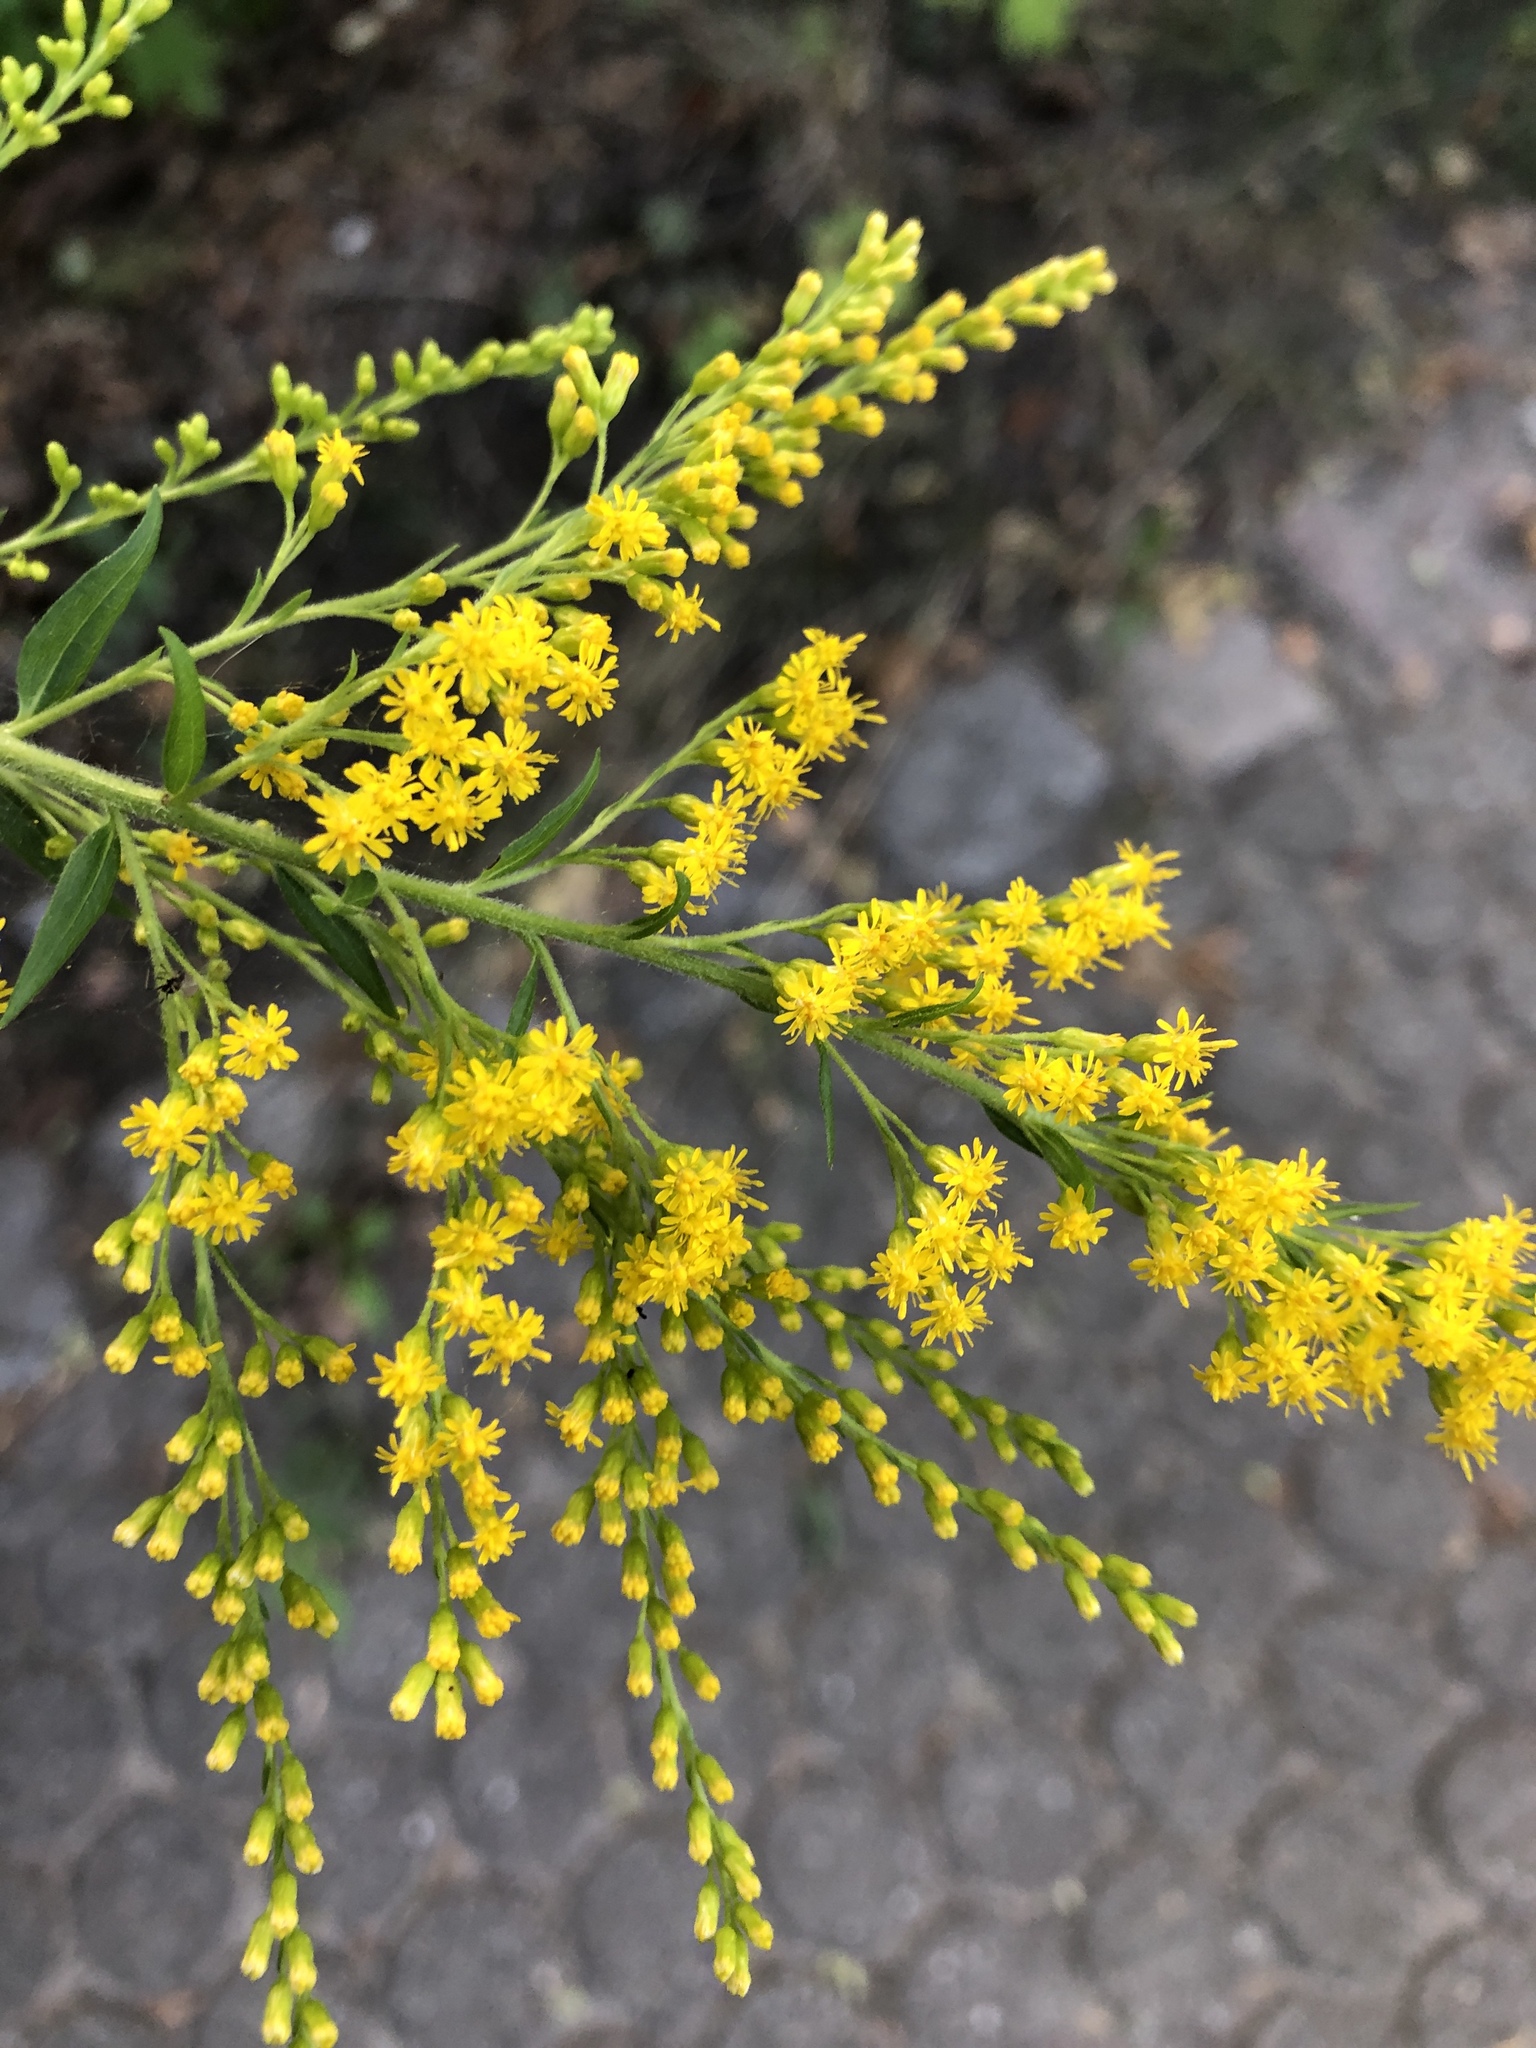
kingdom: Plantae
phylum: Tracheophyta
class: Magnoliopsida
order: Asterales
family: Asteraceae
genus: Solidago
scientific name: Solidago canadensis
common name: Canada goldenrod
